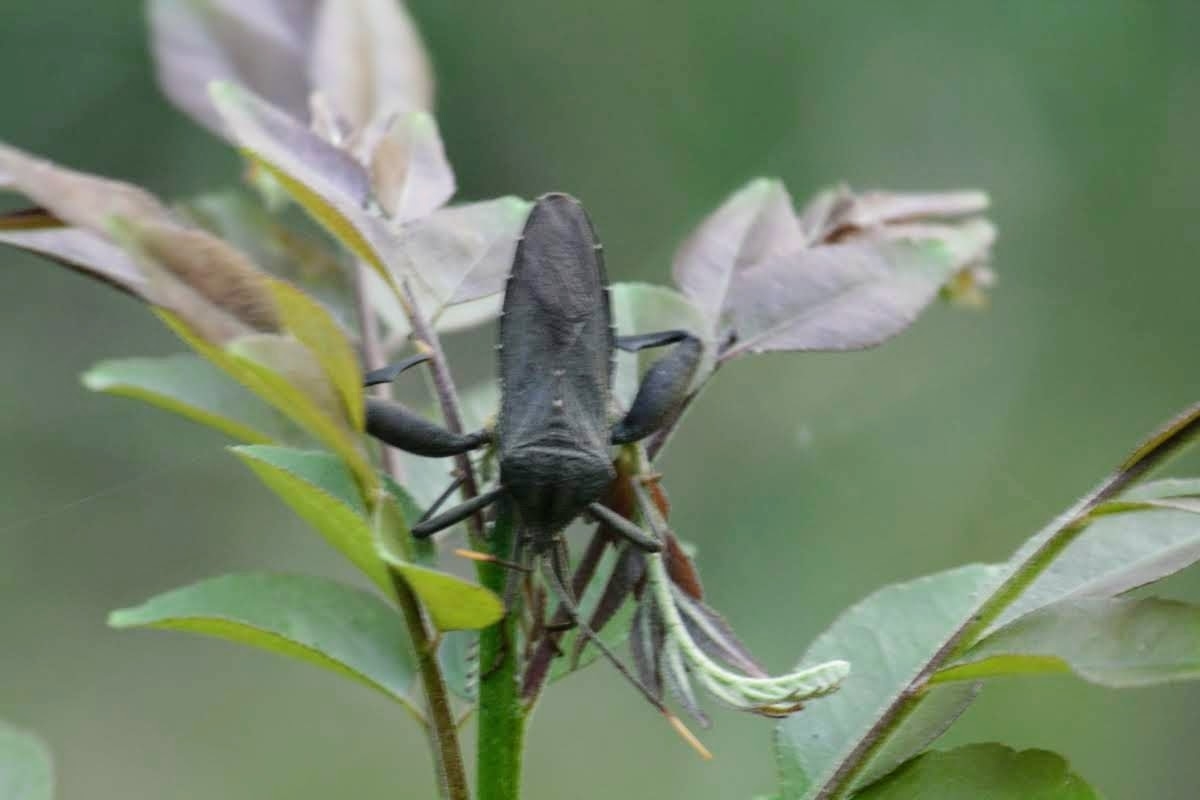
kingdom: Animalia
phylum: Arthropoda
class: Insecta
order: Hemiptera
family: Coreidae
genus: Mictis
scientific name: Mictis caja
